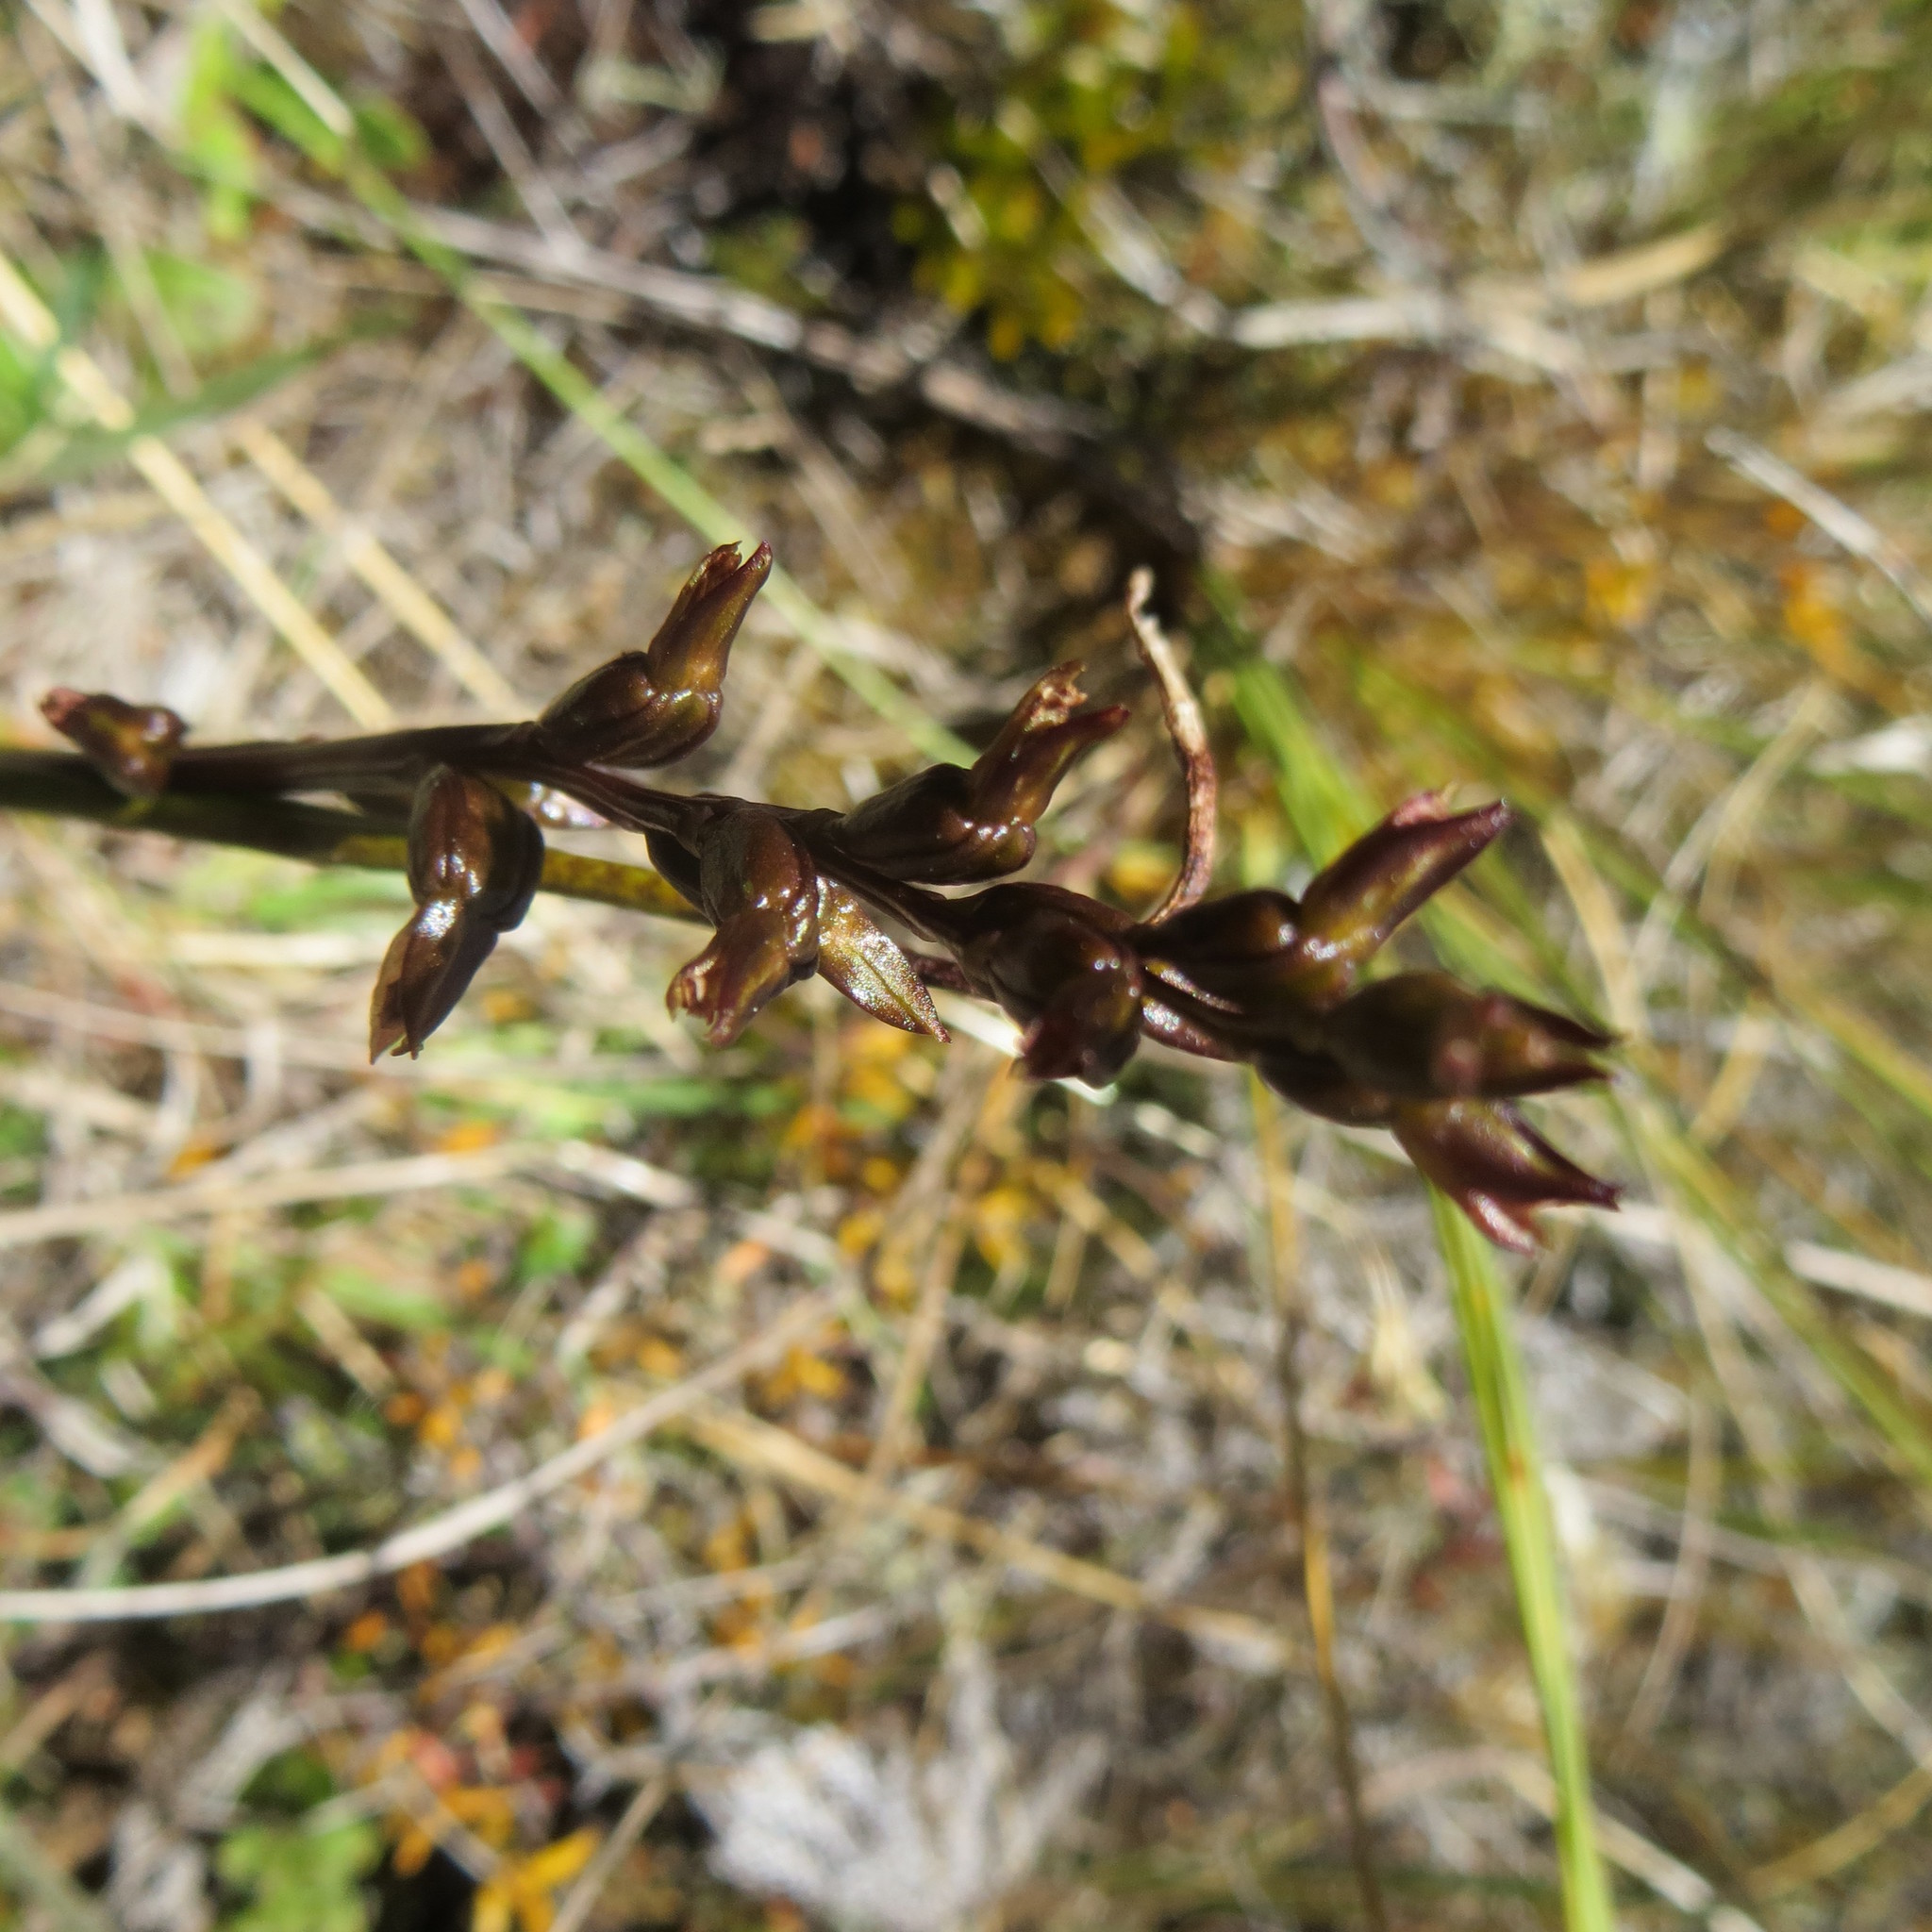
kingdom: Plantae
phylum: Tracheophyta
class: Liliopsida
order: Asparagales
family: Orchidaceae
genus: Prasophyllum
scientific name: Prasophyllum colensoi
